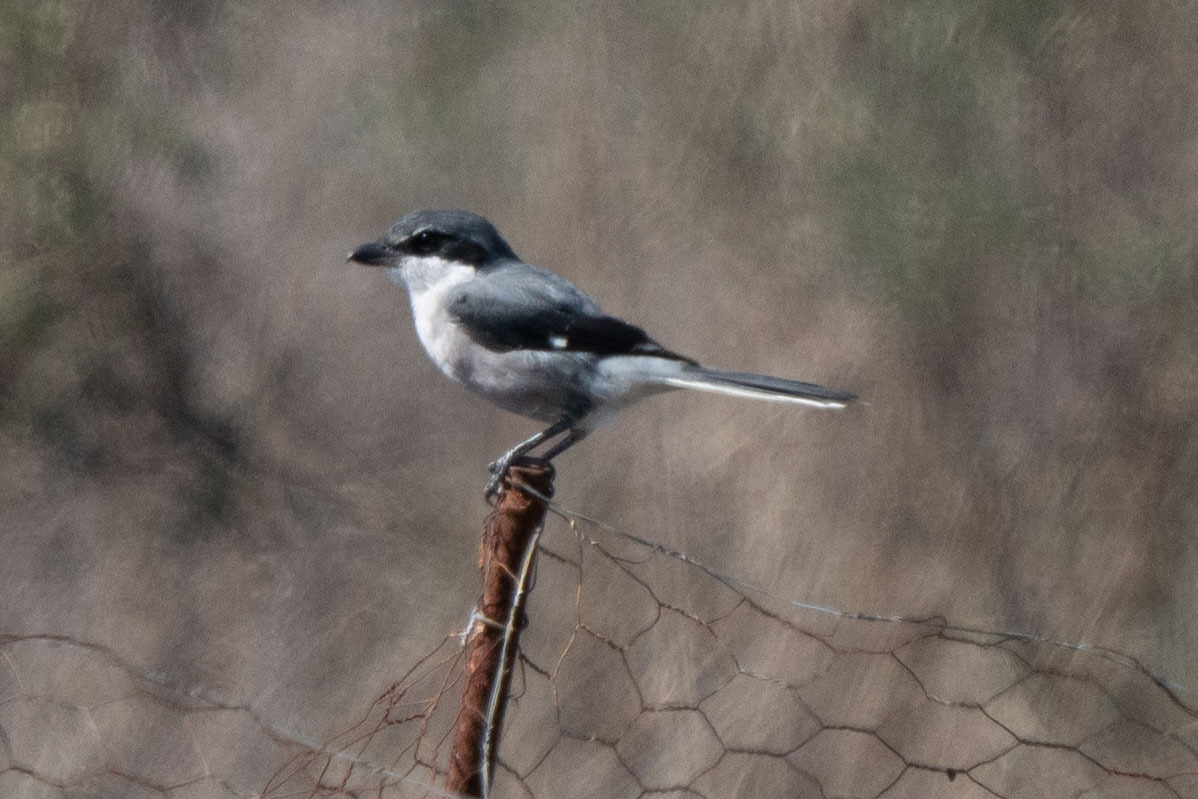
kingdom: Animalia
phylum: Chordata
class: Aves
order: Passeriformes
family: Laniidae
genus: Lanius
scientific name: Lanius meridionalis
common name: Iberian grey shrike
